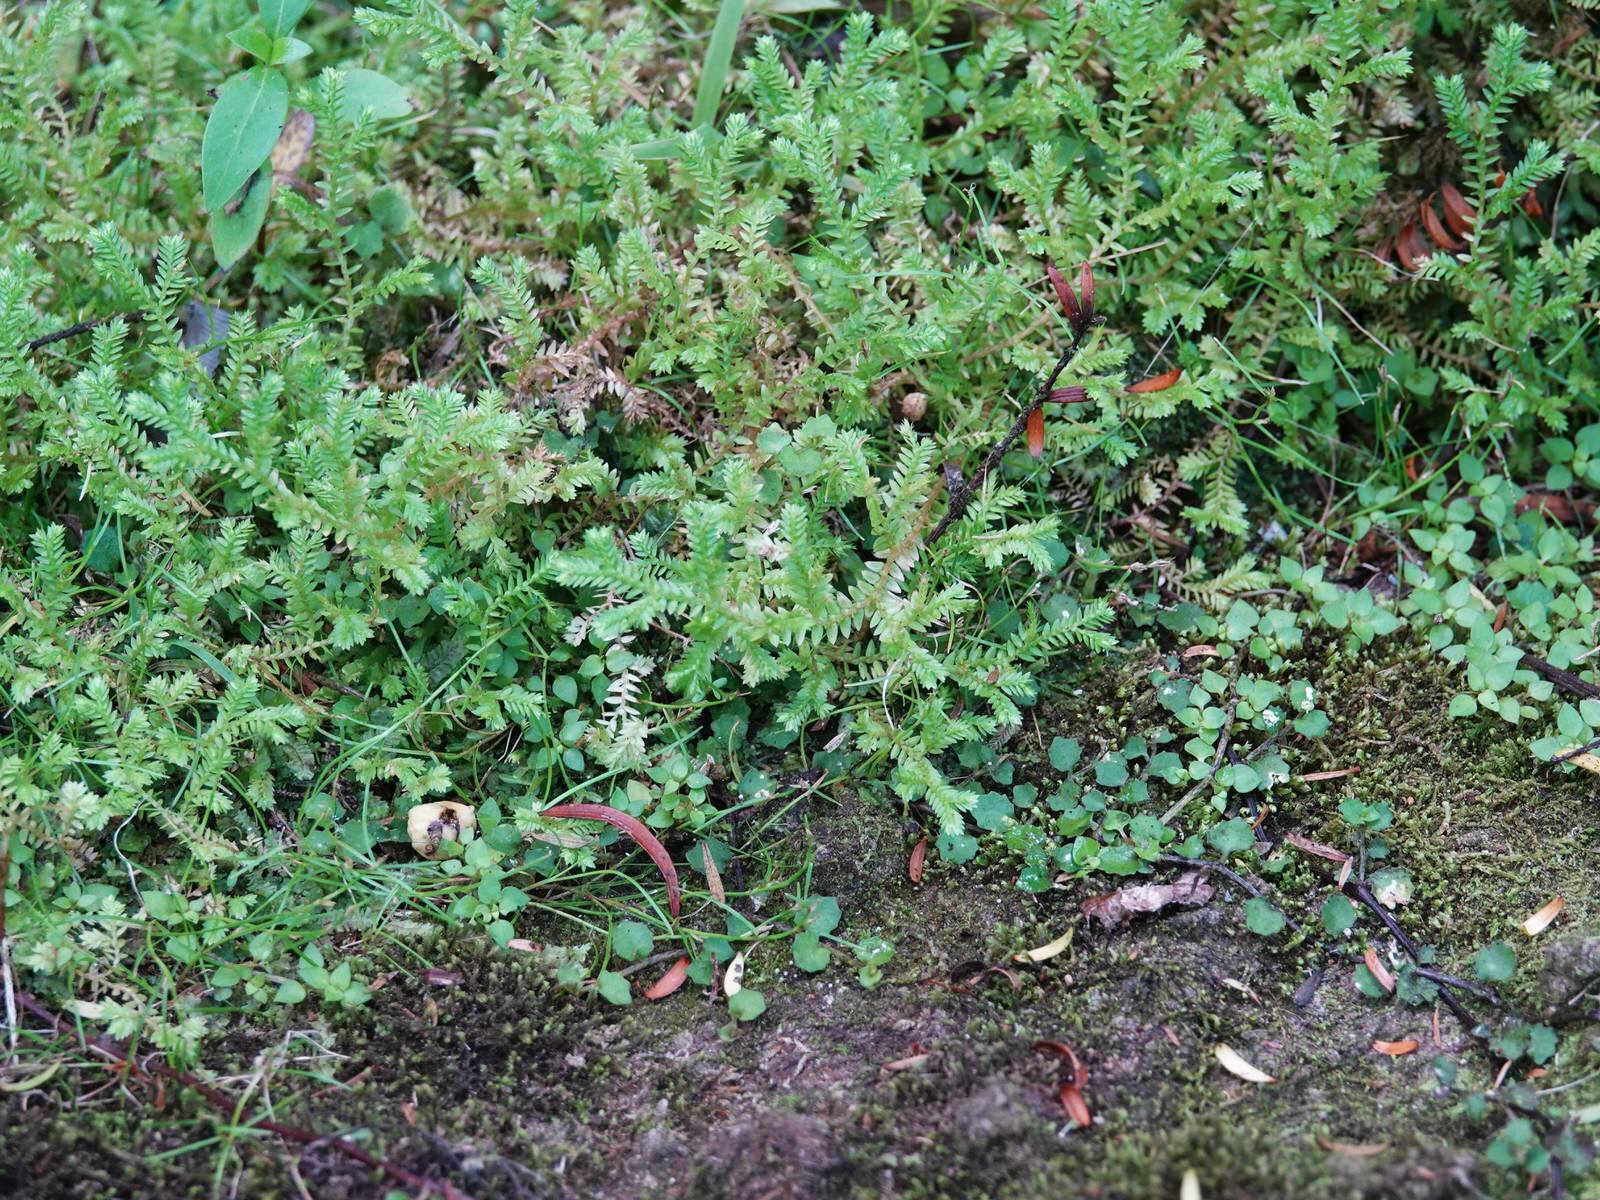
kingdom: Plantae
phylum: Tracheophyta
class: Lycopodiopsida
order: Selaginellales
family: Selaginellaceae
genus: Selaginella
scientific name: Selaginella kraussiana
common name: Krauss' spikemoss
